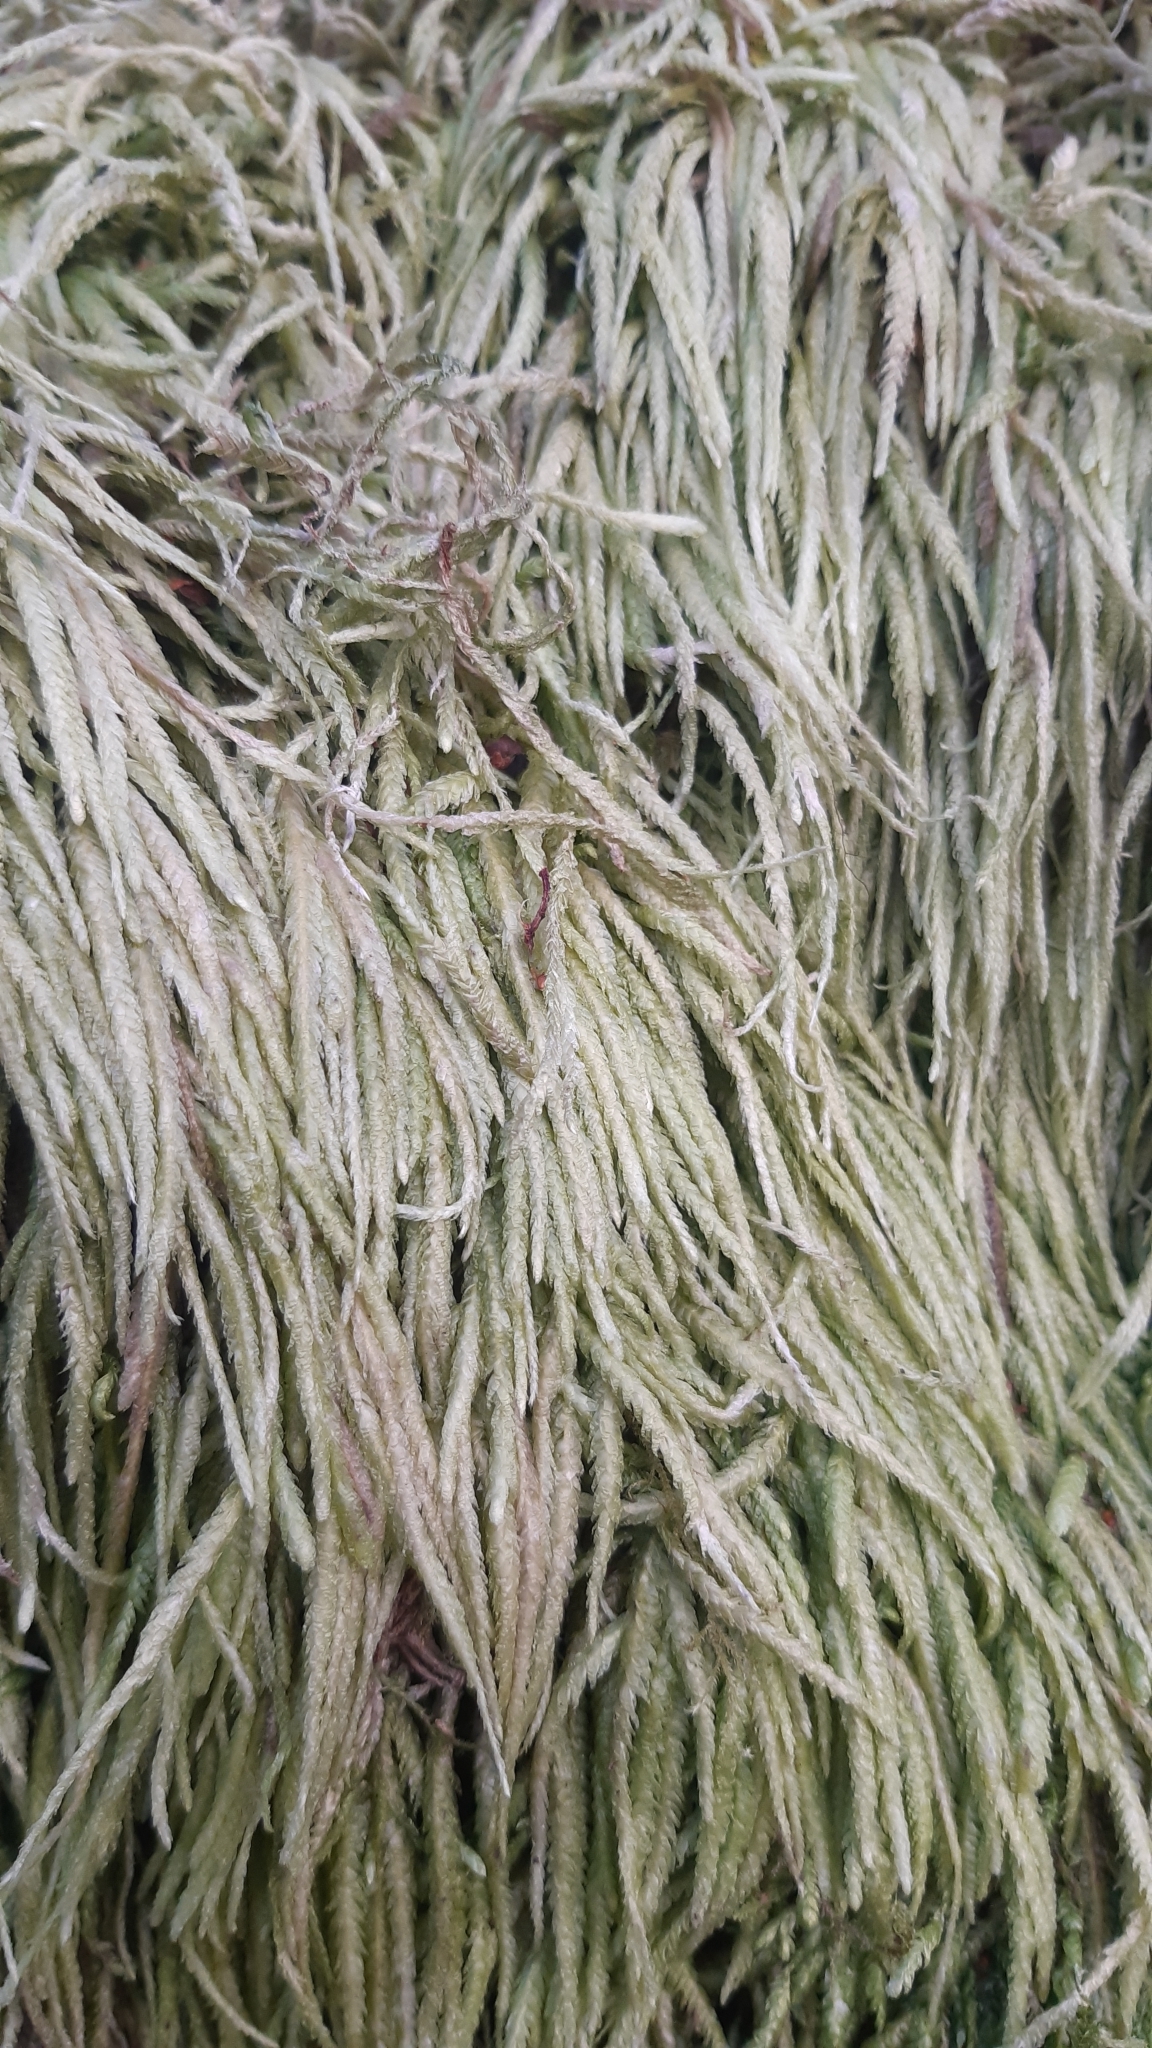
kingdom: Plantae
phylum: Bryophyta
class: Bryopsida
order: Hypnales
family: Plagiotheciaceae
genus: Plagiothecium
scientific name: Plagiothecium undulatum
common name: Waved silk-moss
